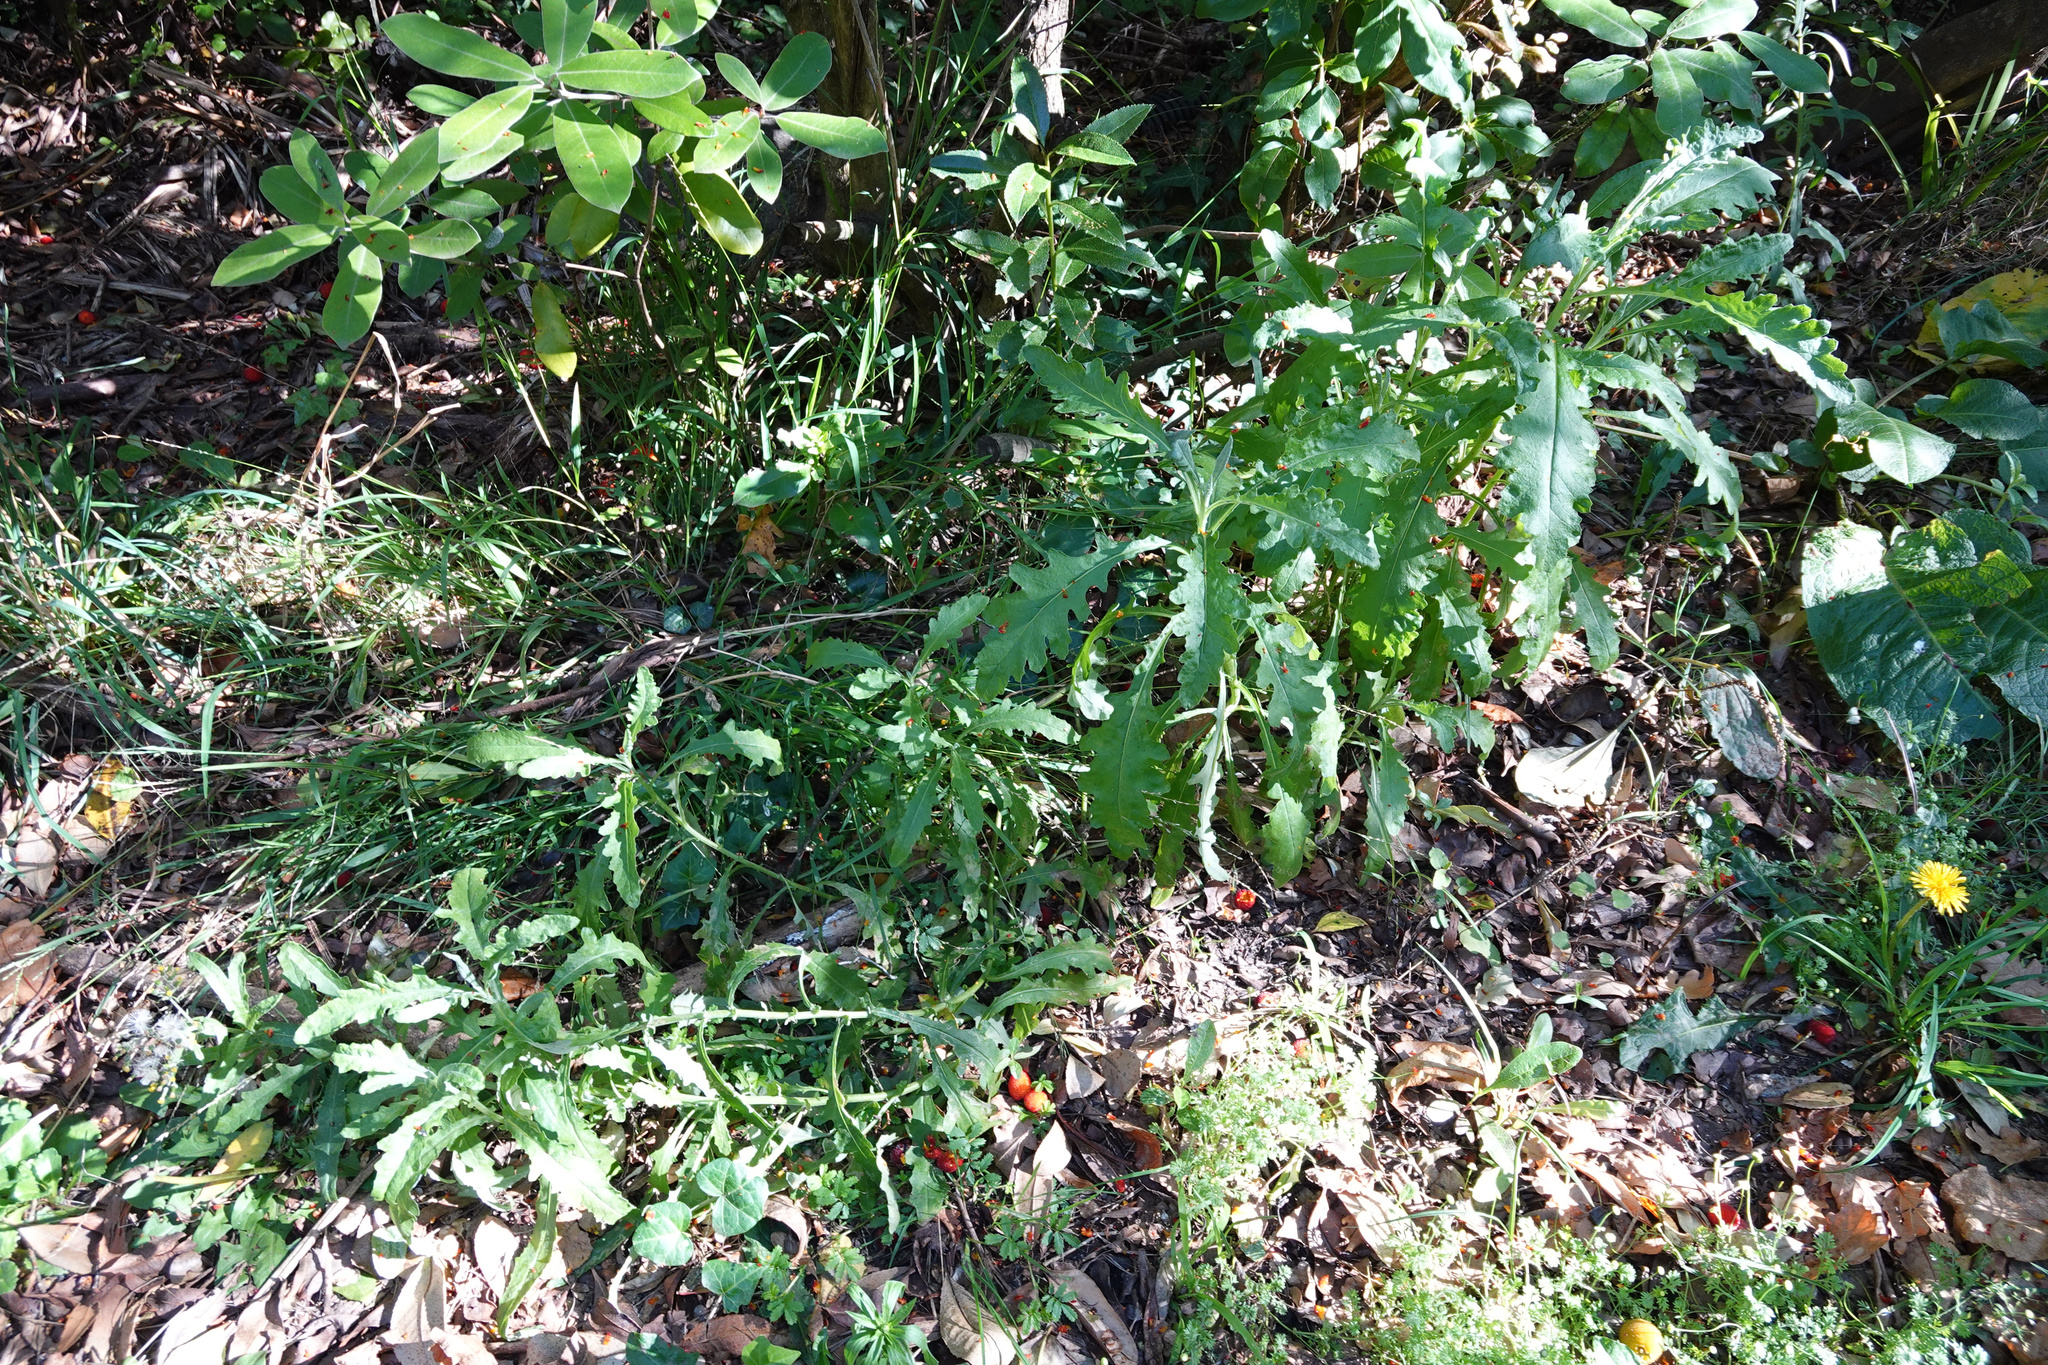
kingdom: Plantae
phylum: Tracheophyta
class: Magnoliopsida
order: Asterales
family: Asteraceae
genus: Senecio
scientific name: Senecio glomeratus
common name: Cutleaf burnweed
